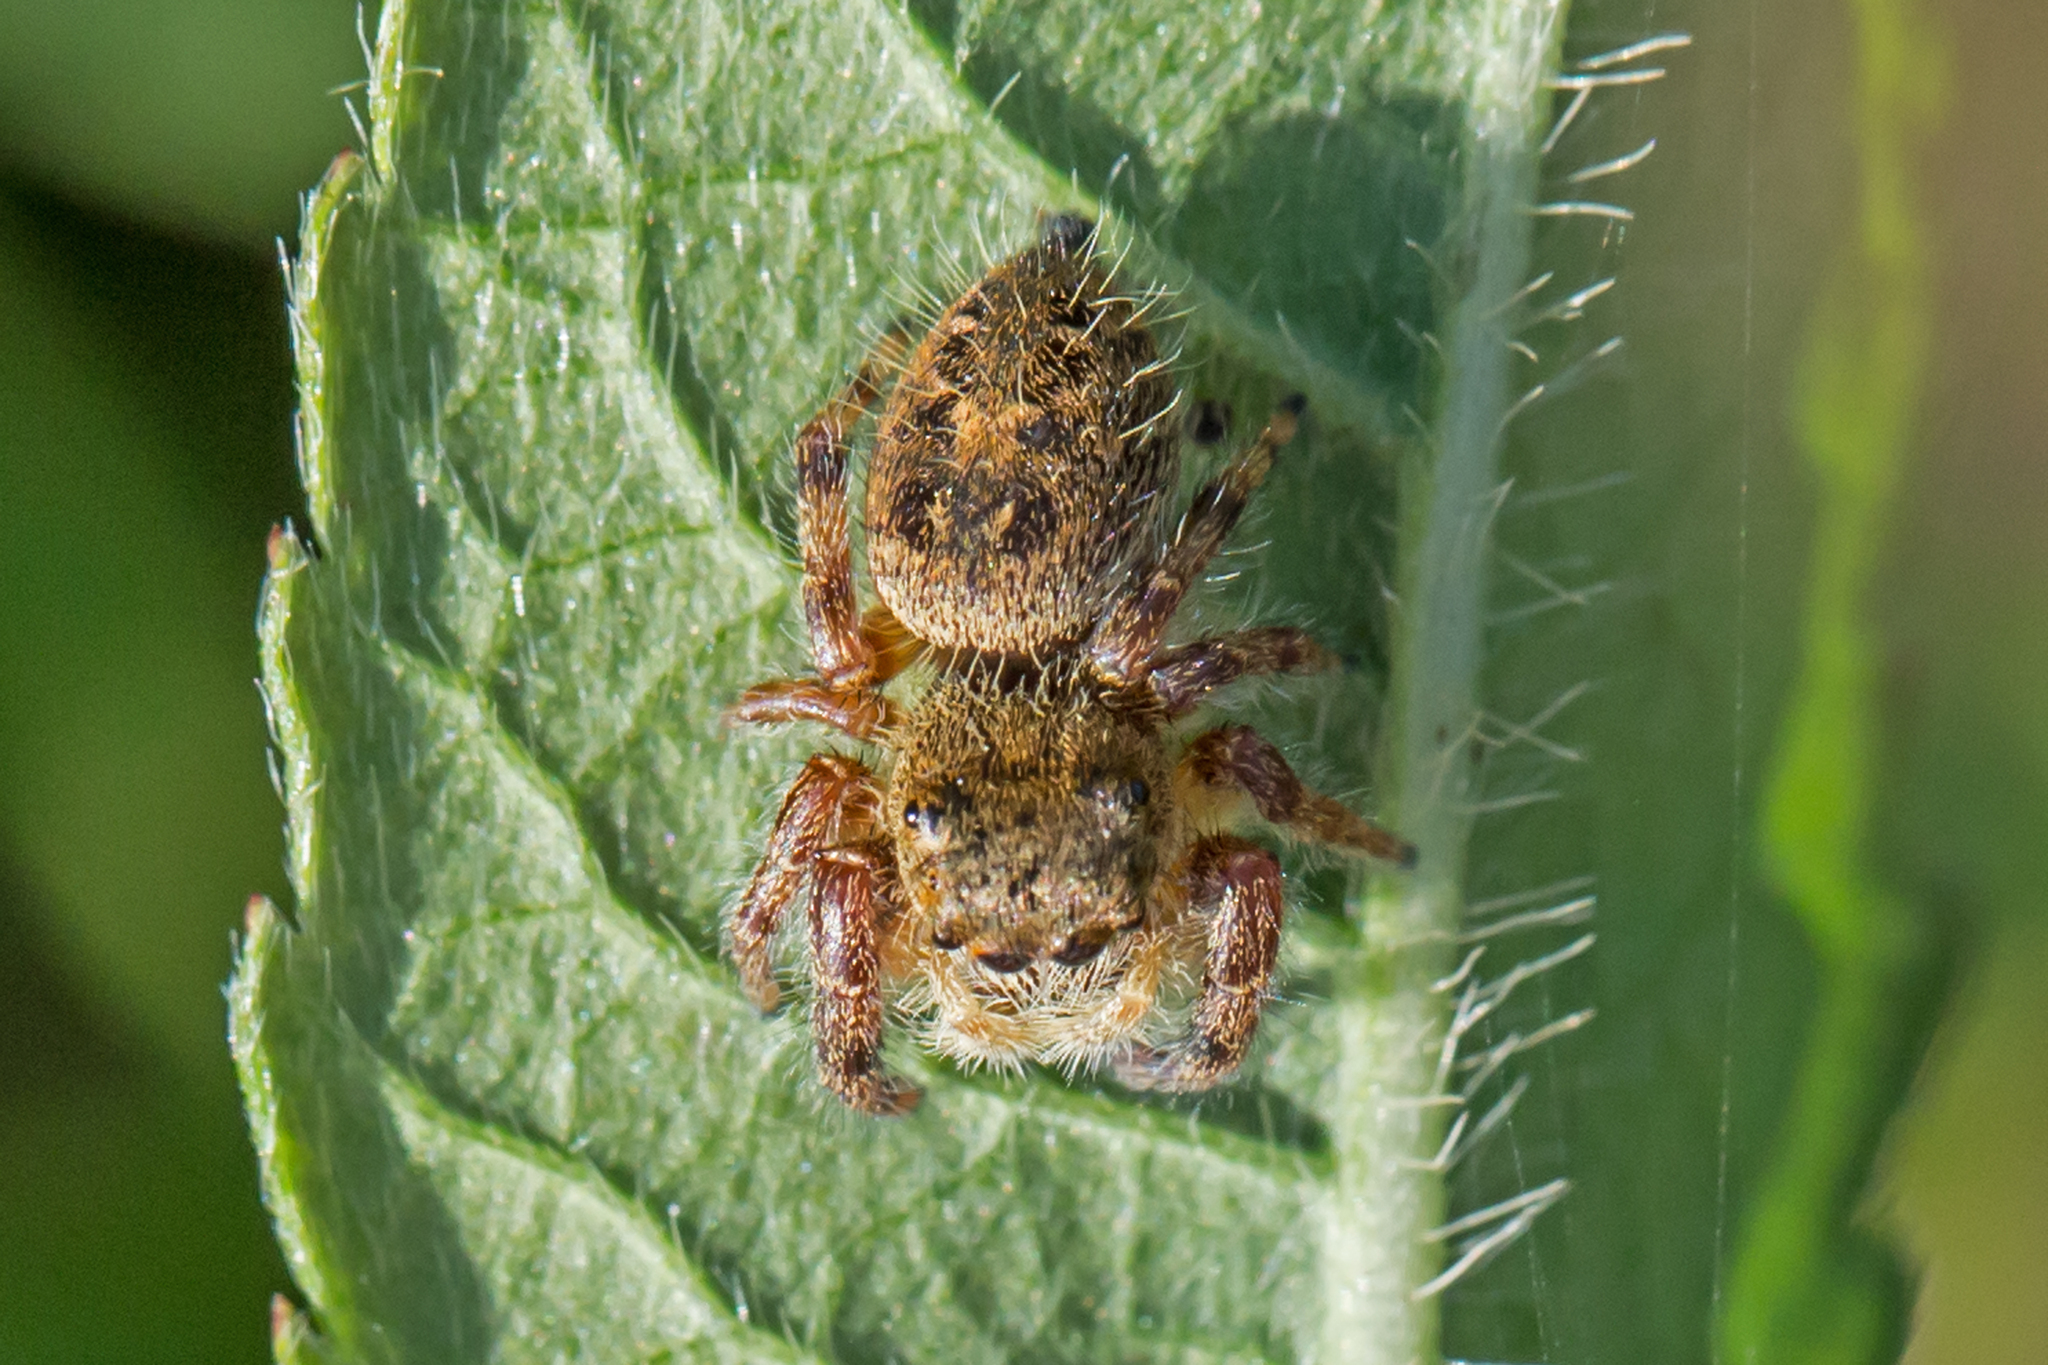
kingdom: Animalia
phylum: Arthropoda
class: Arachnida
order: Araneae
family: Salticidae
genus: Phidippus
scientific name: Phidippus princeps
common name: Grayish jumping spider
